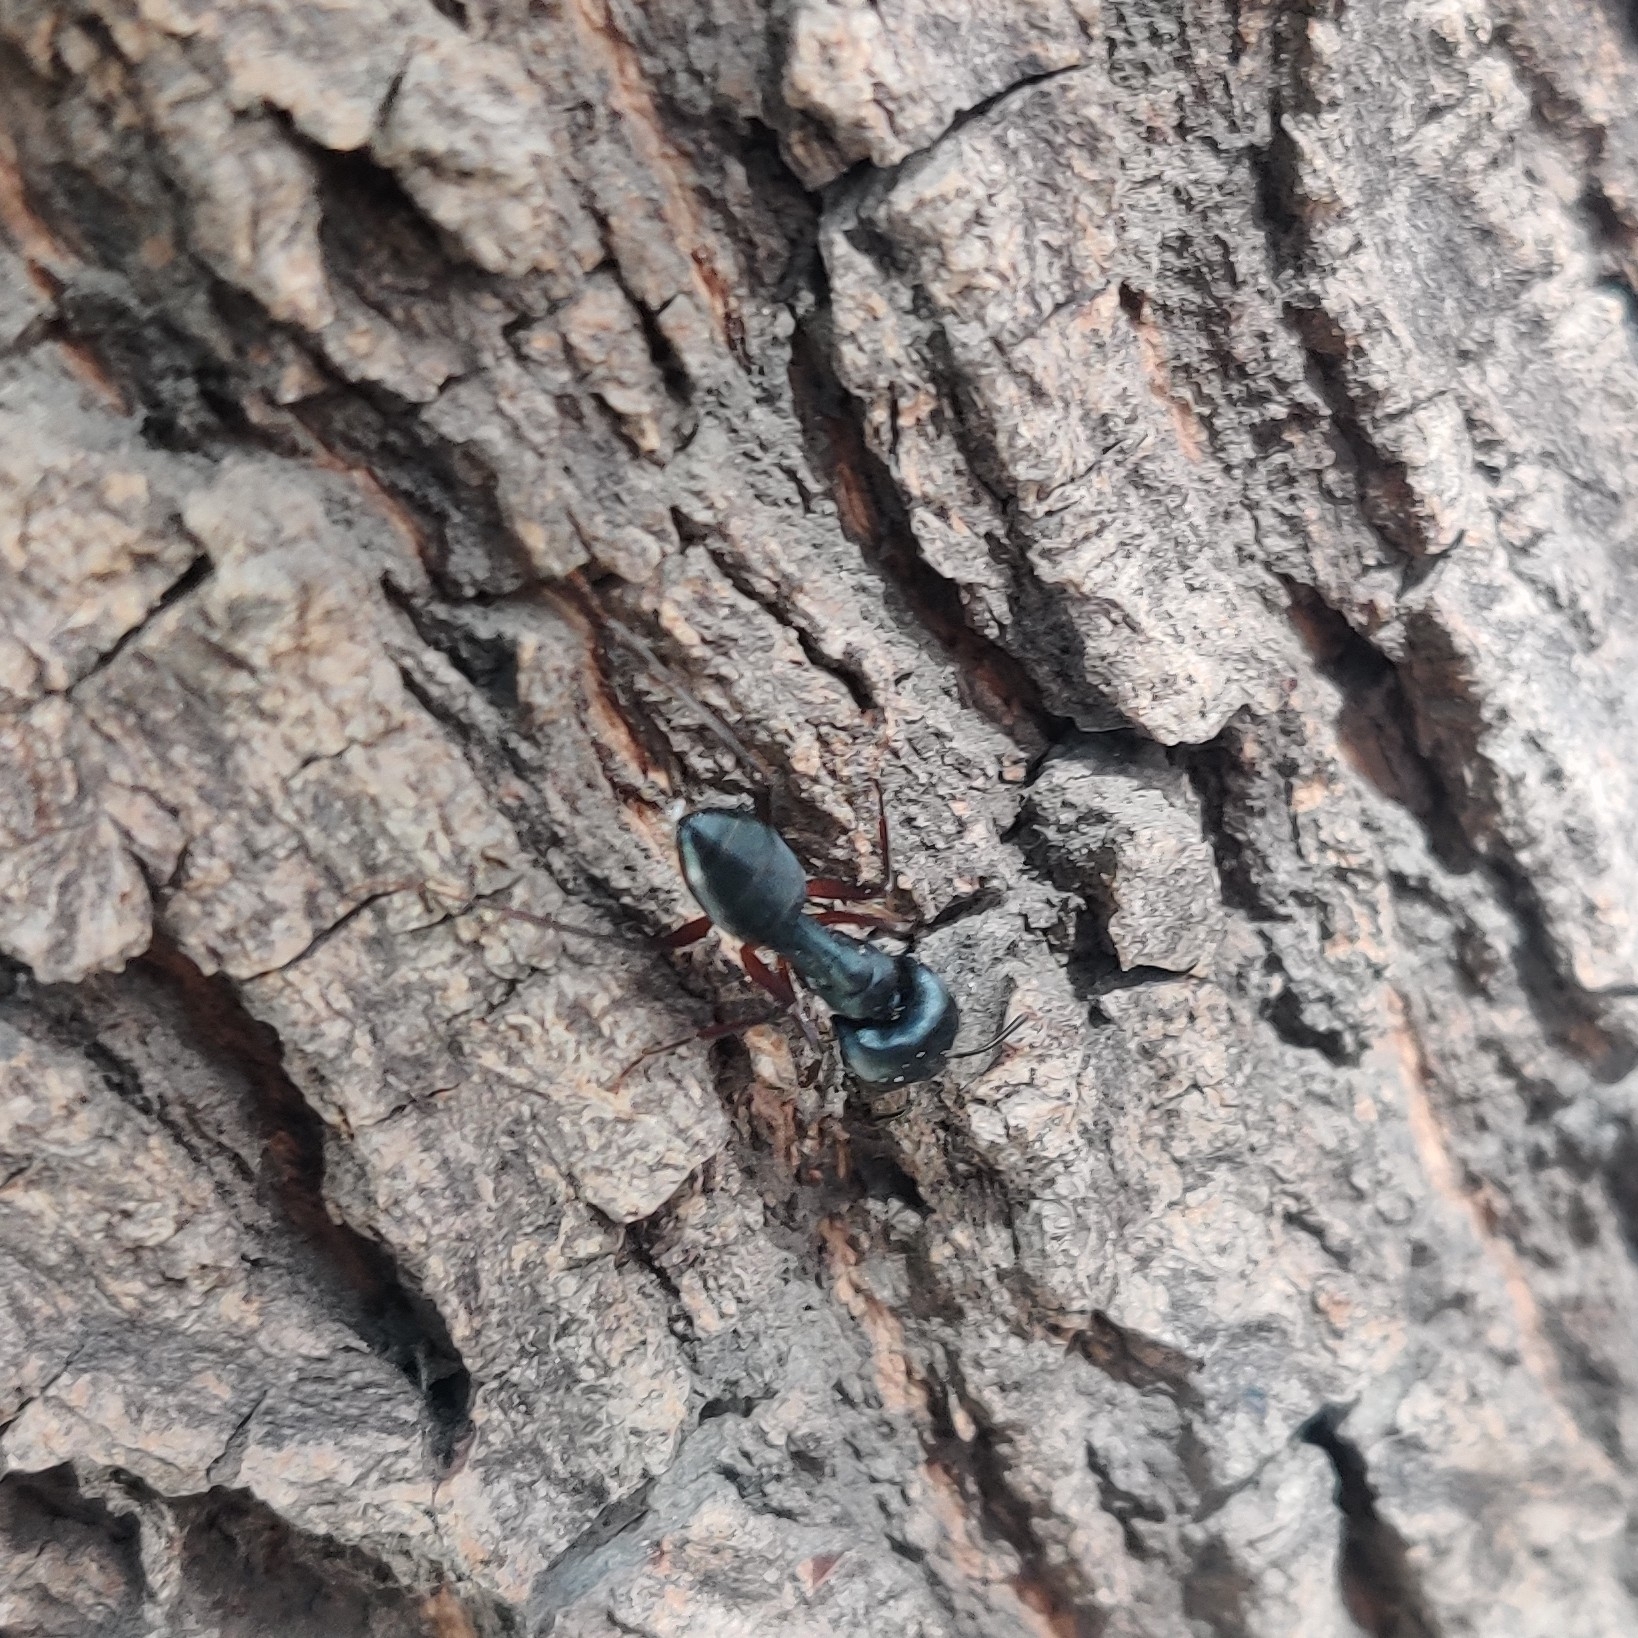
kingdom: Animalia
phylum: Arthropoda
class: Insecta
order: Hymenoptera
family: Formicidae
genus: Camponotus
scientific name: Camponotus compressus
